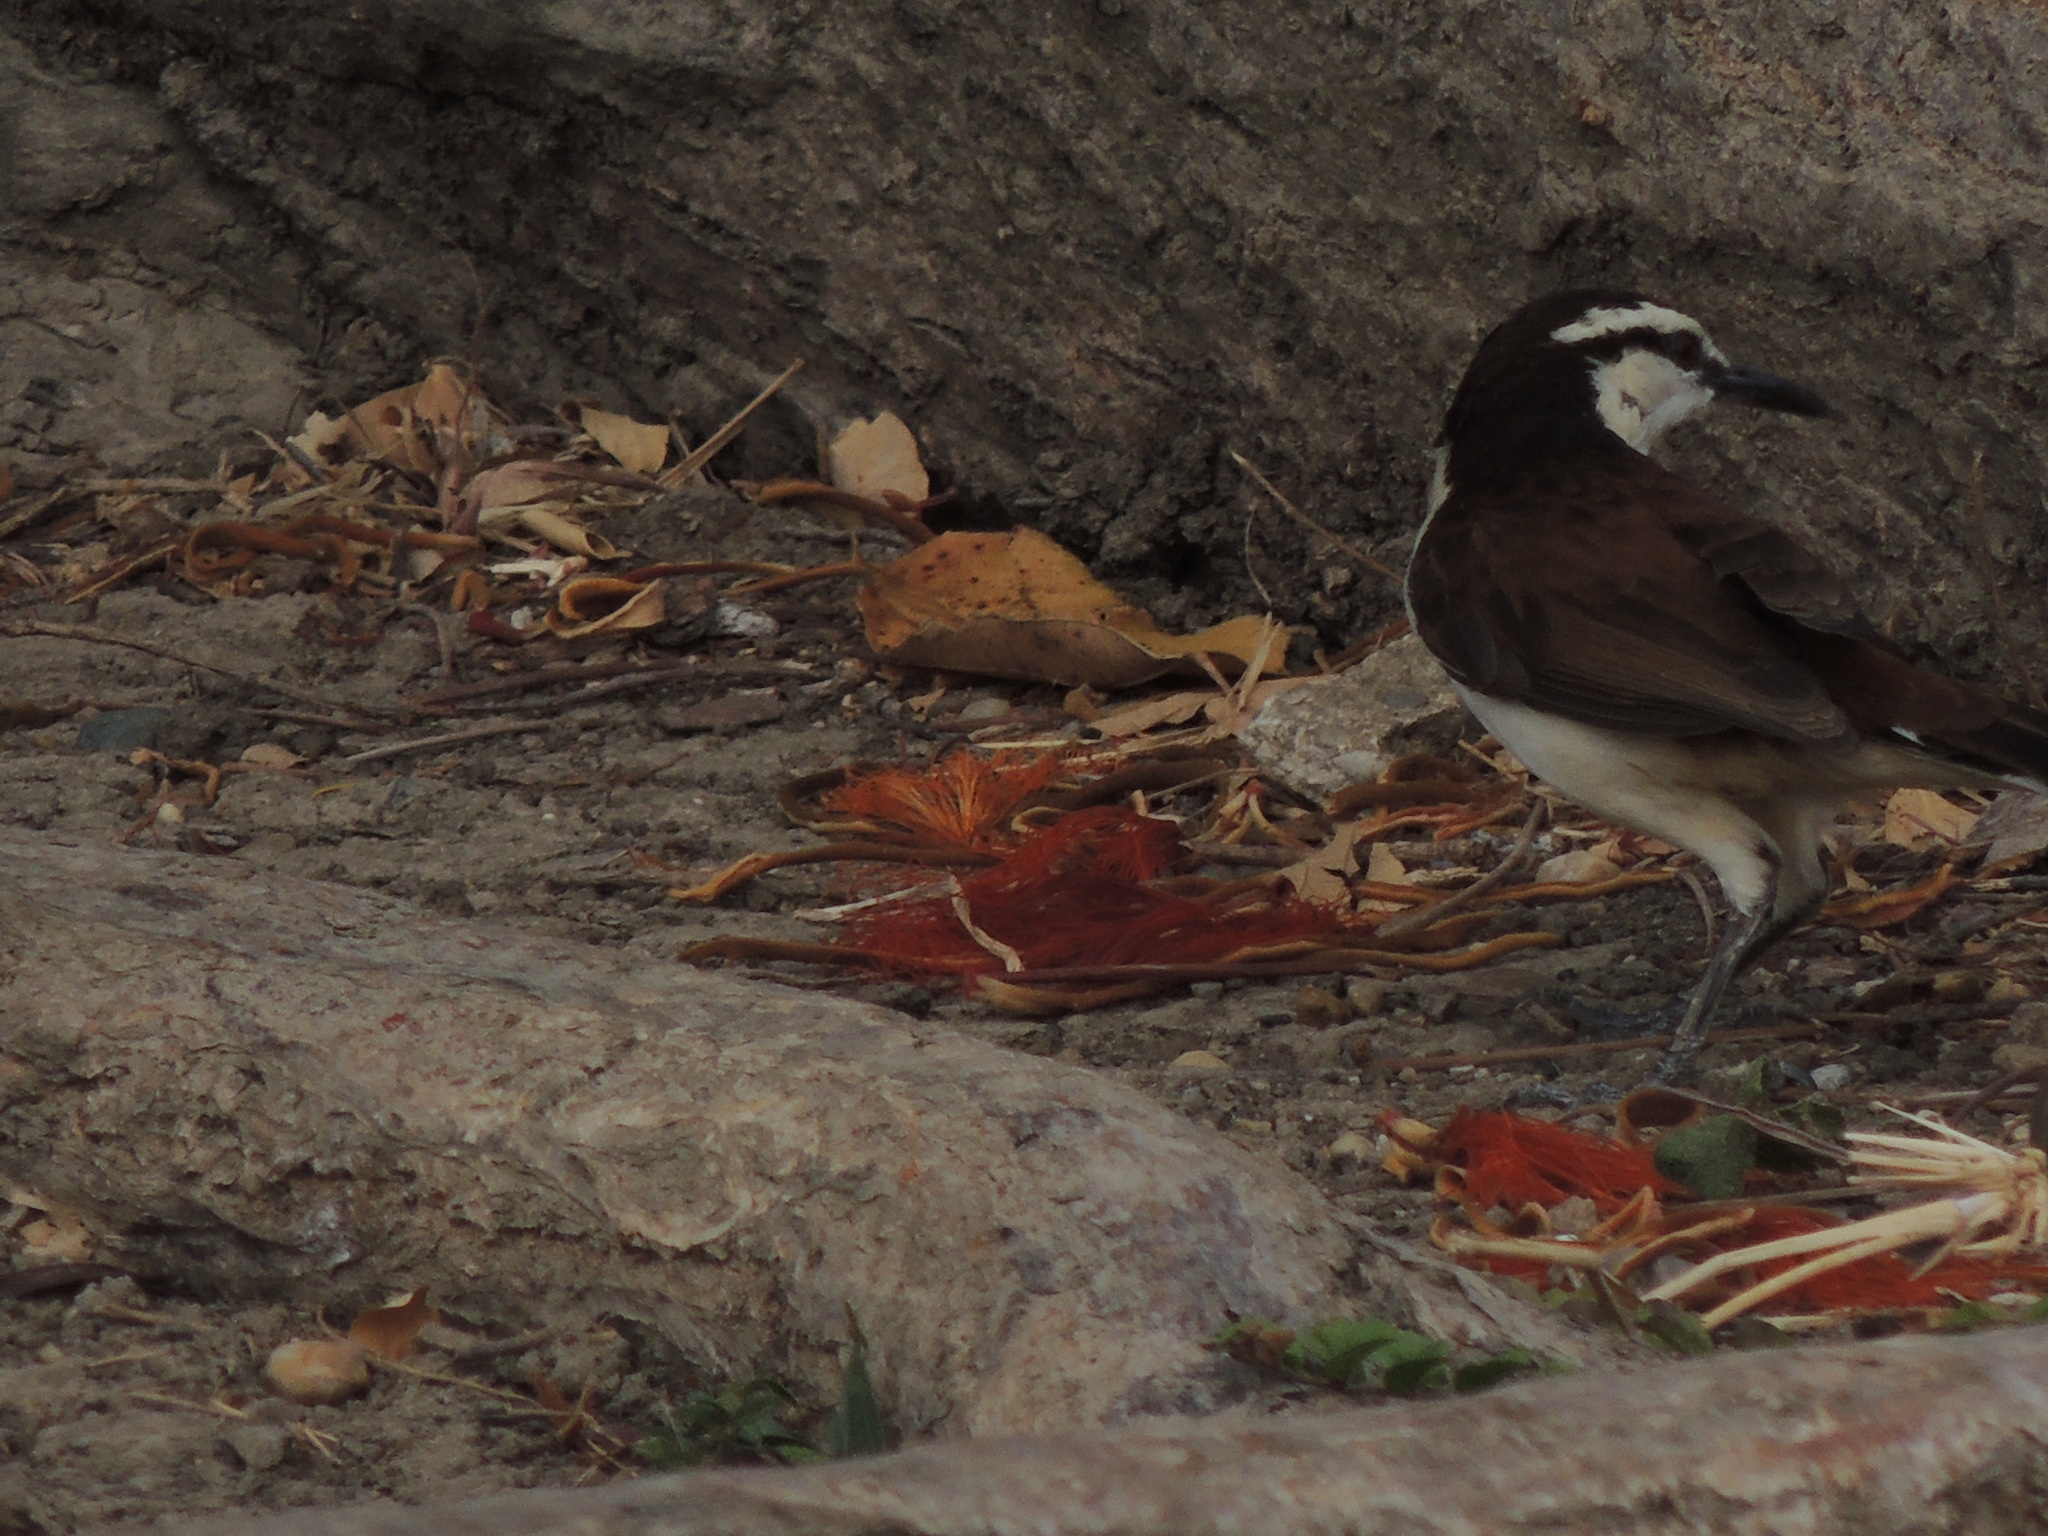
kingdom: Animalia
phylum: Chordata
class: Aves
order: Passeriformes
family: Troglodytidae
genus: Campylorhynchus
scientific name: Campylorhynchus griseus
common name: Bicolored wren
